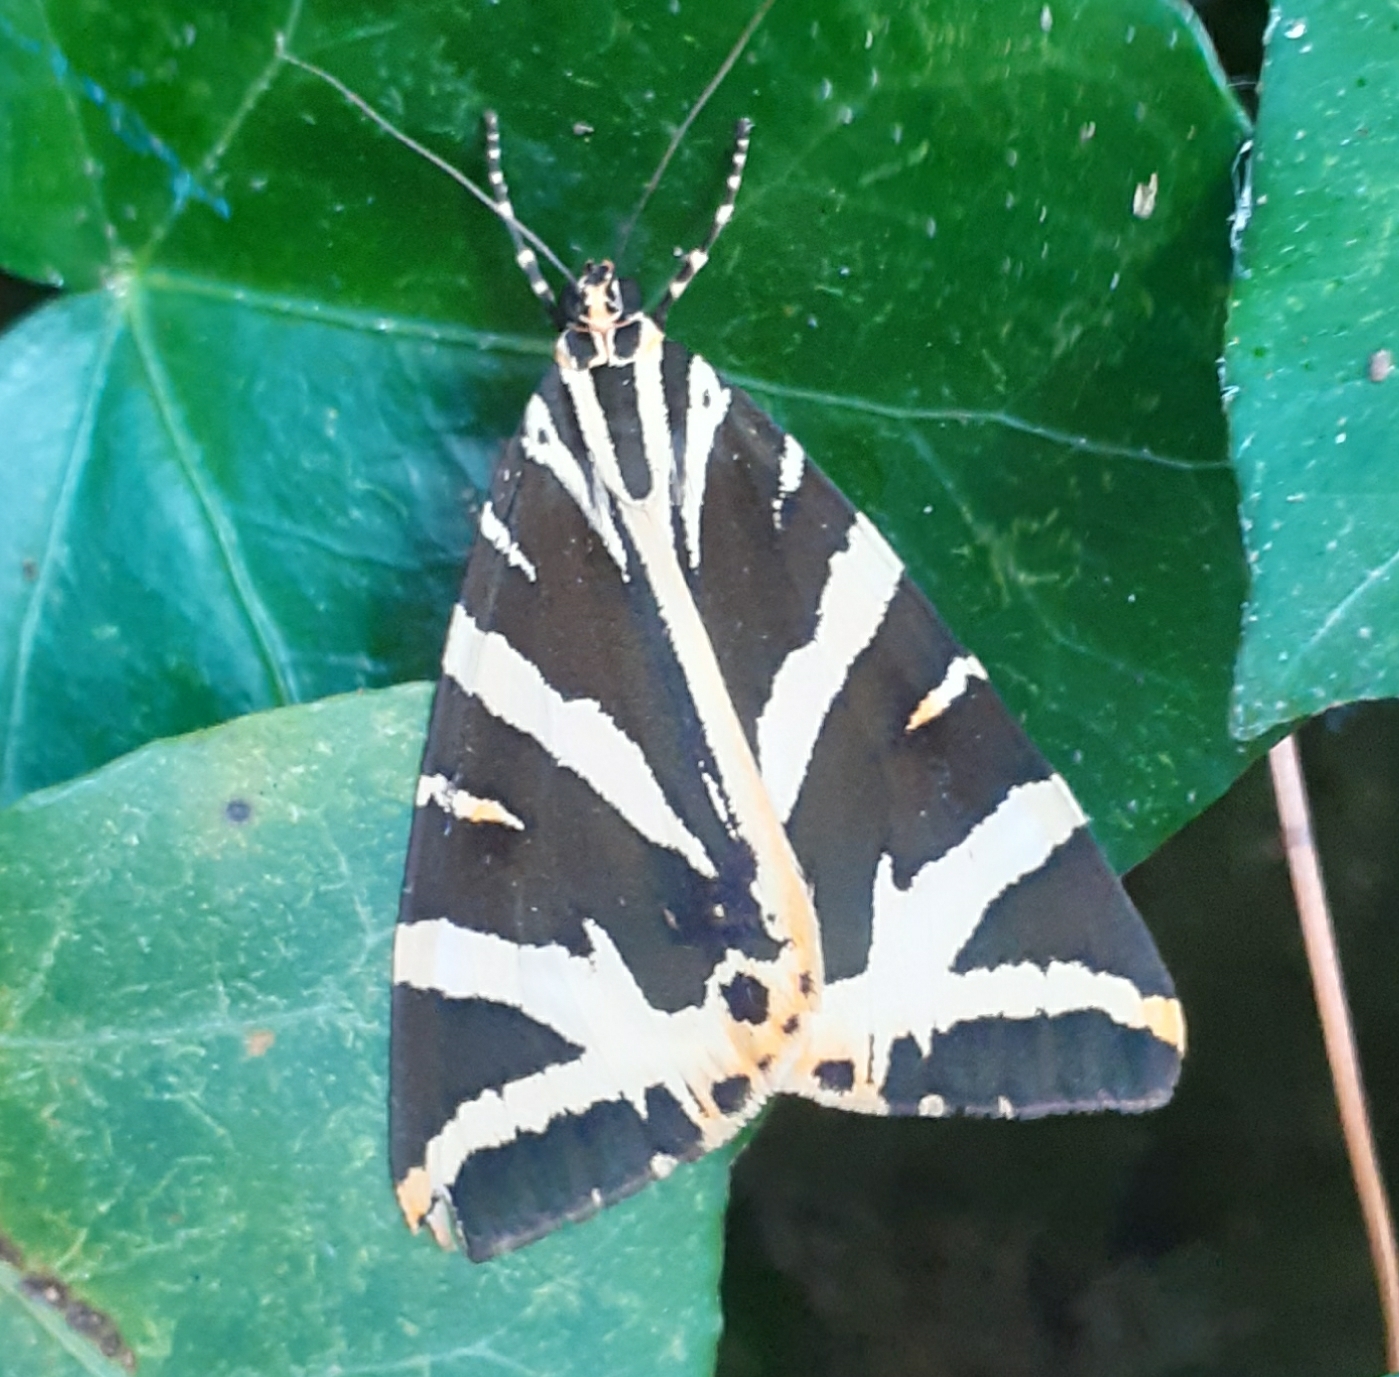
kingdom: Animalia
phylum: Arthropoda
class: Insecta
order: Lepidoptera
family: Erebidae
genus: Euplagia
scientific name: Euplagia quadripunctaria
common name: Jersey tiger
